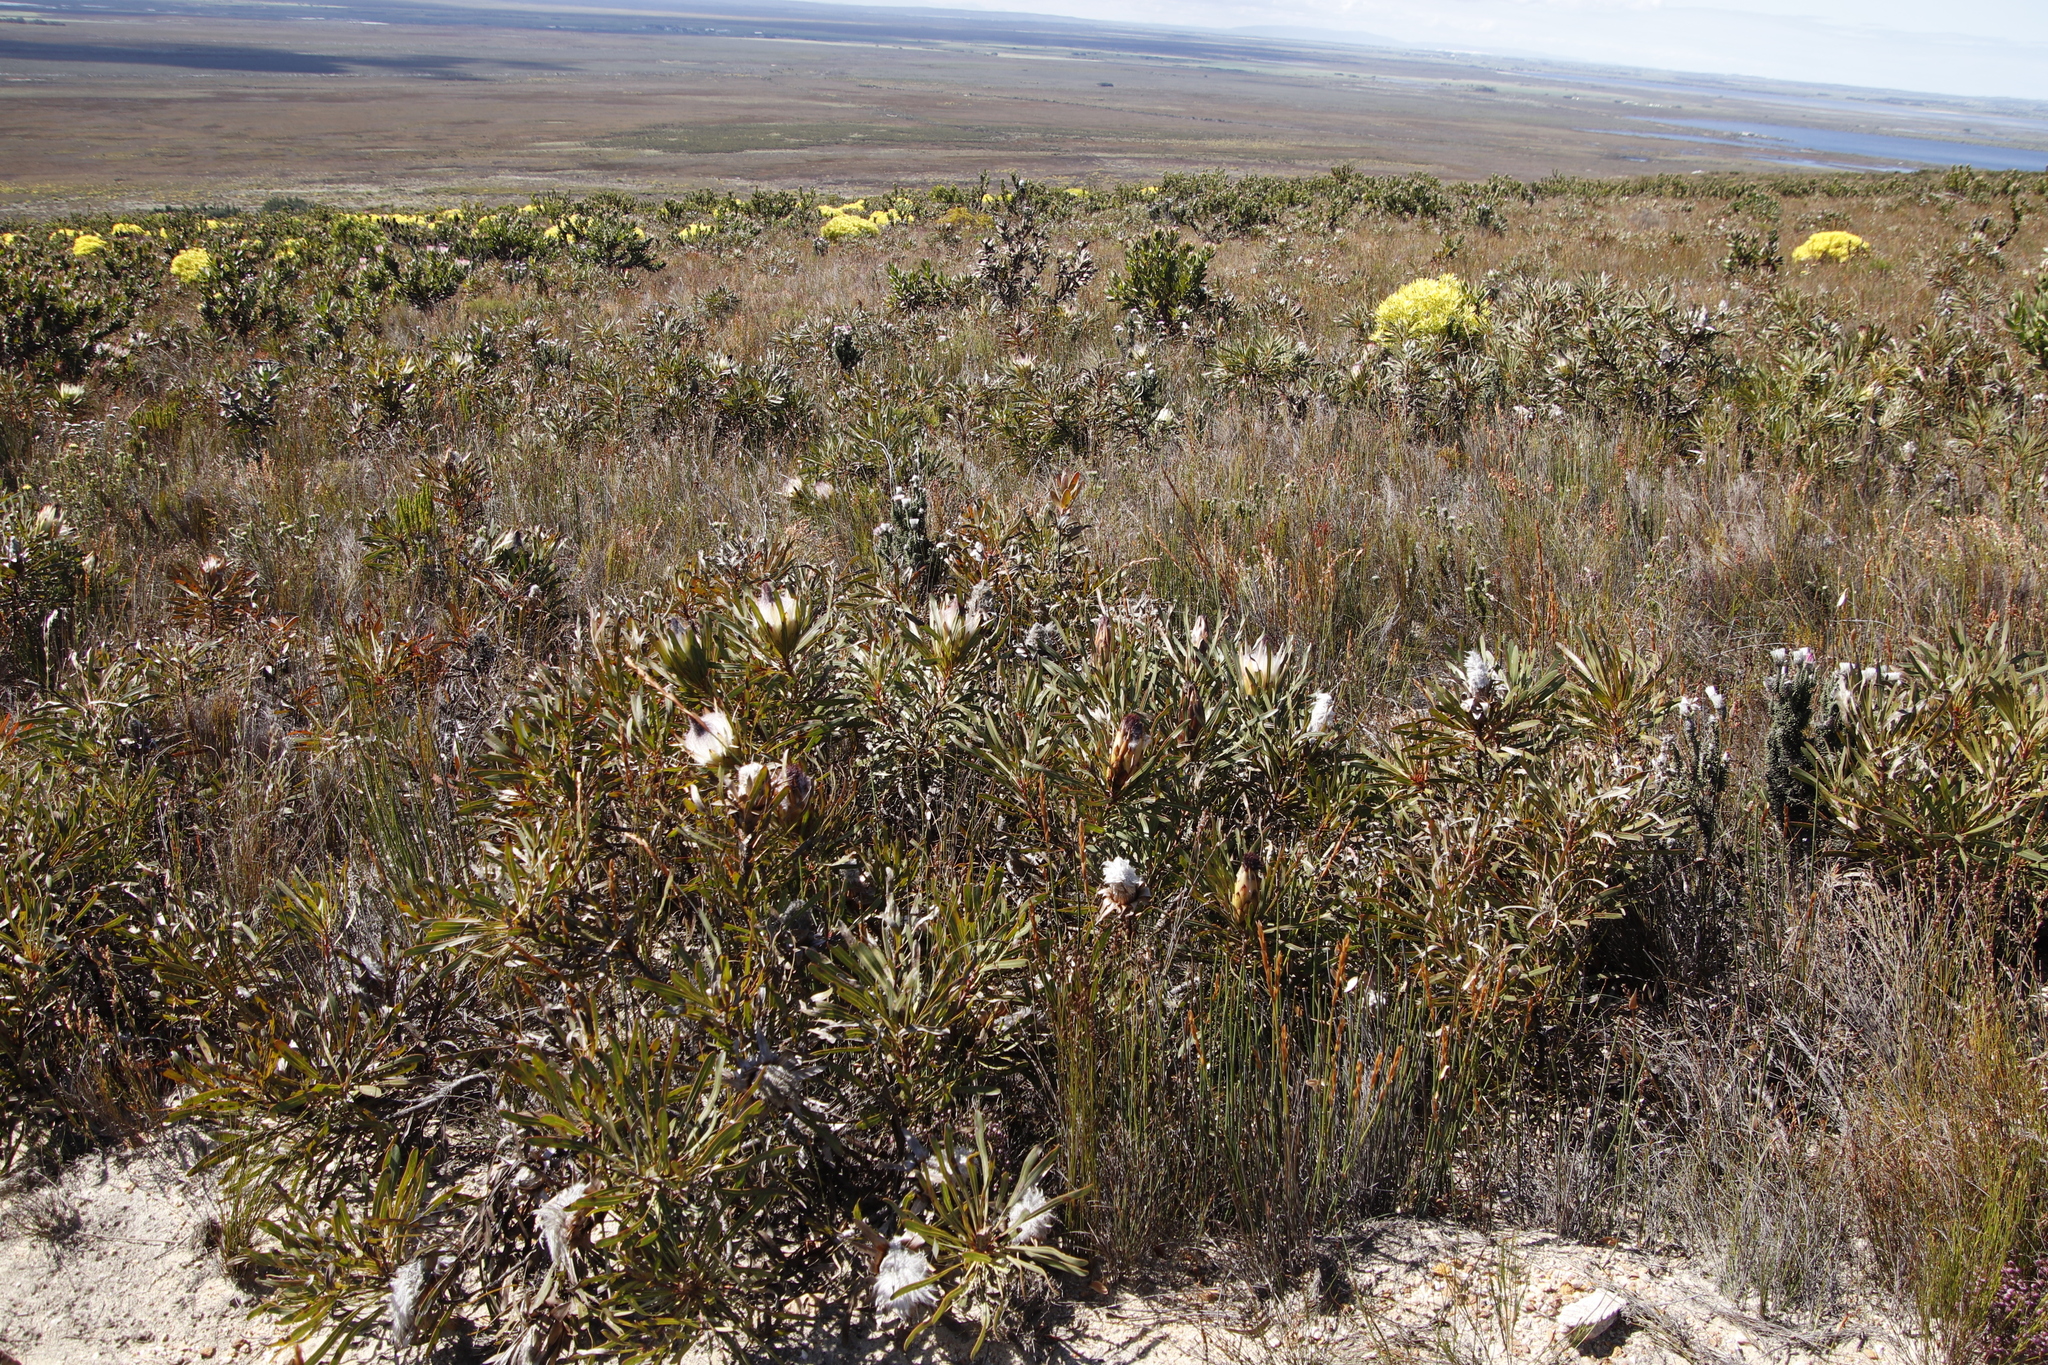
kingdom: Plantae
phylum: Tracheophyta
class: Magnoliopsida
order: Proteales
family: Proteaceae
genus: Protea
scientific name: Protea longifolia
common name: Long-leaf sugarbush
